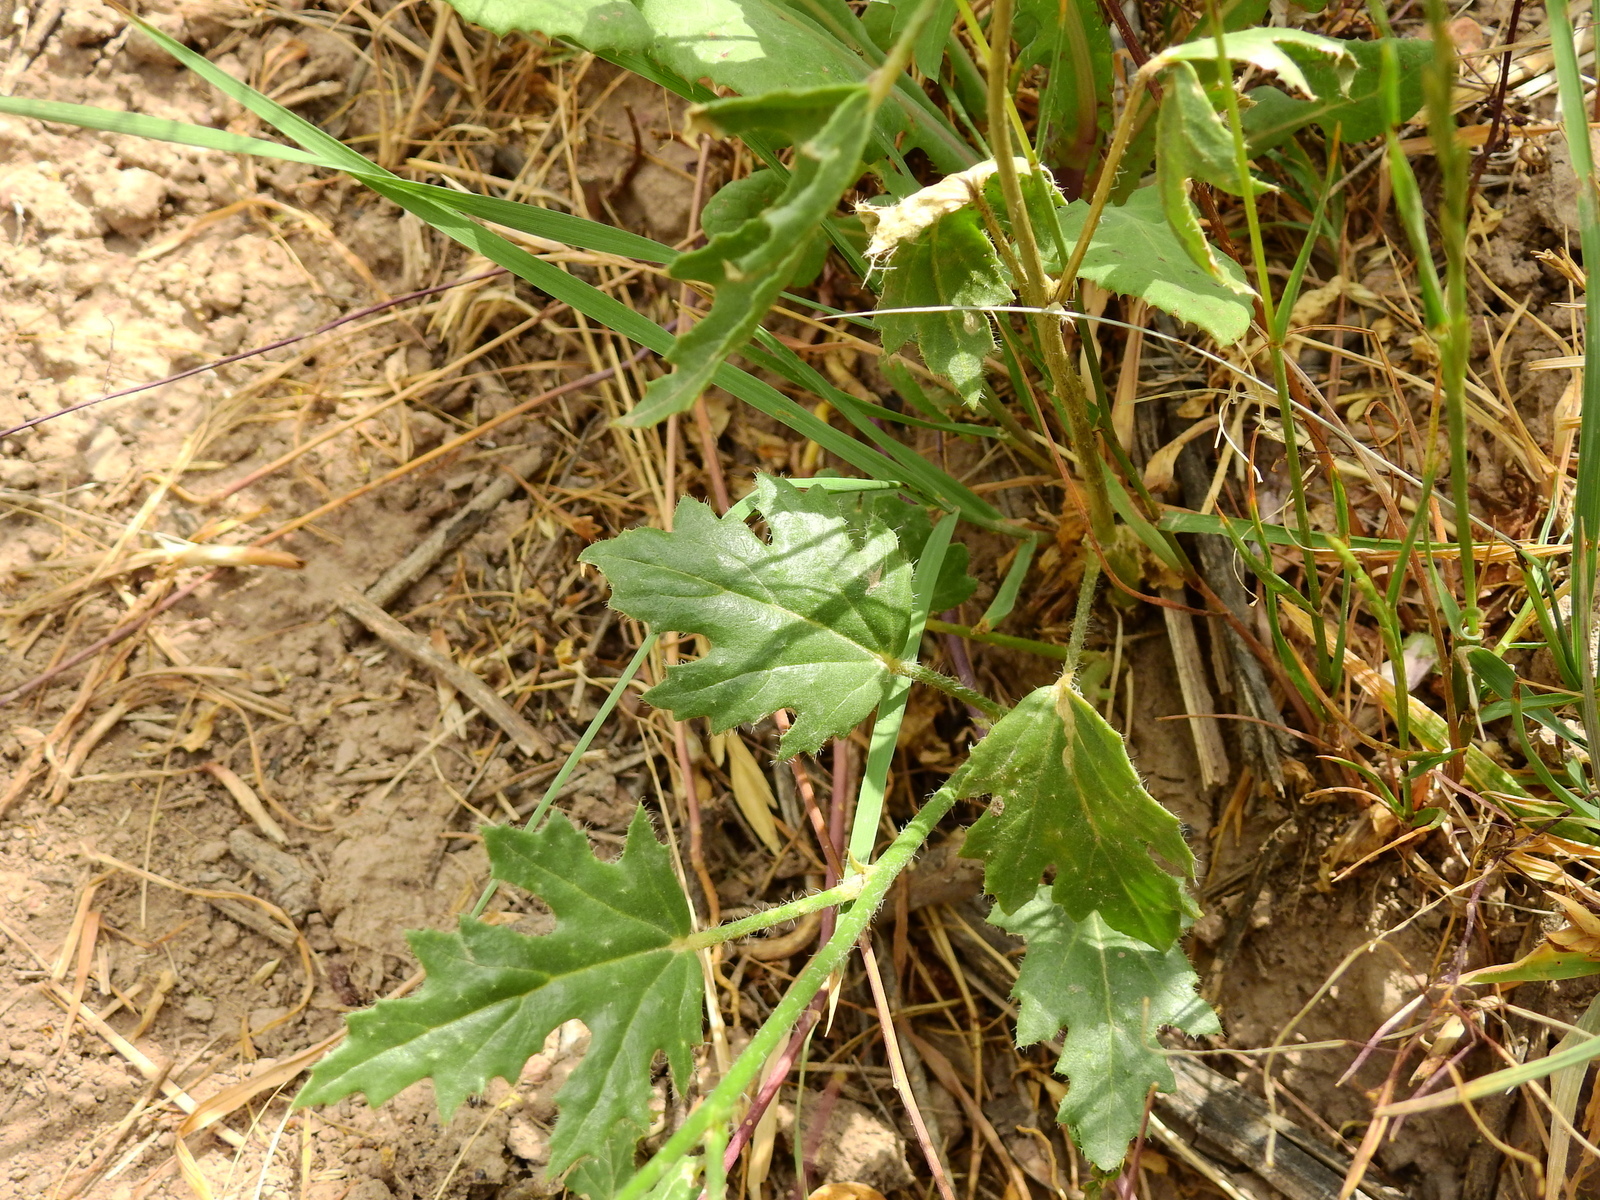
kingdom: Plantae
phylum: Tracheophyta
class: Magnoliopsida
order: Malvales
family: Malvaceae
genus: Lecanophora
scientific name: Lecanophora heterophylla
